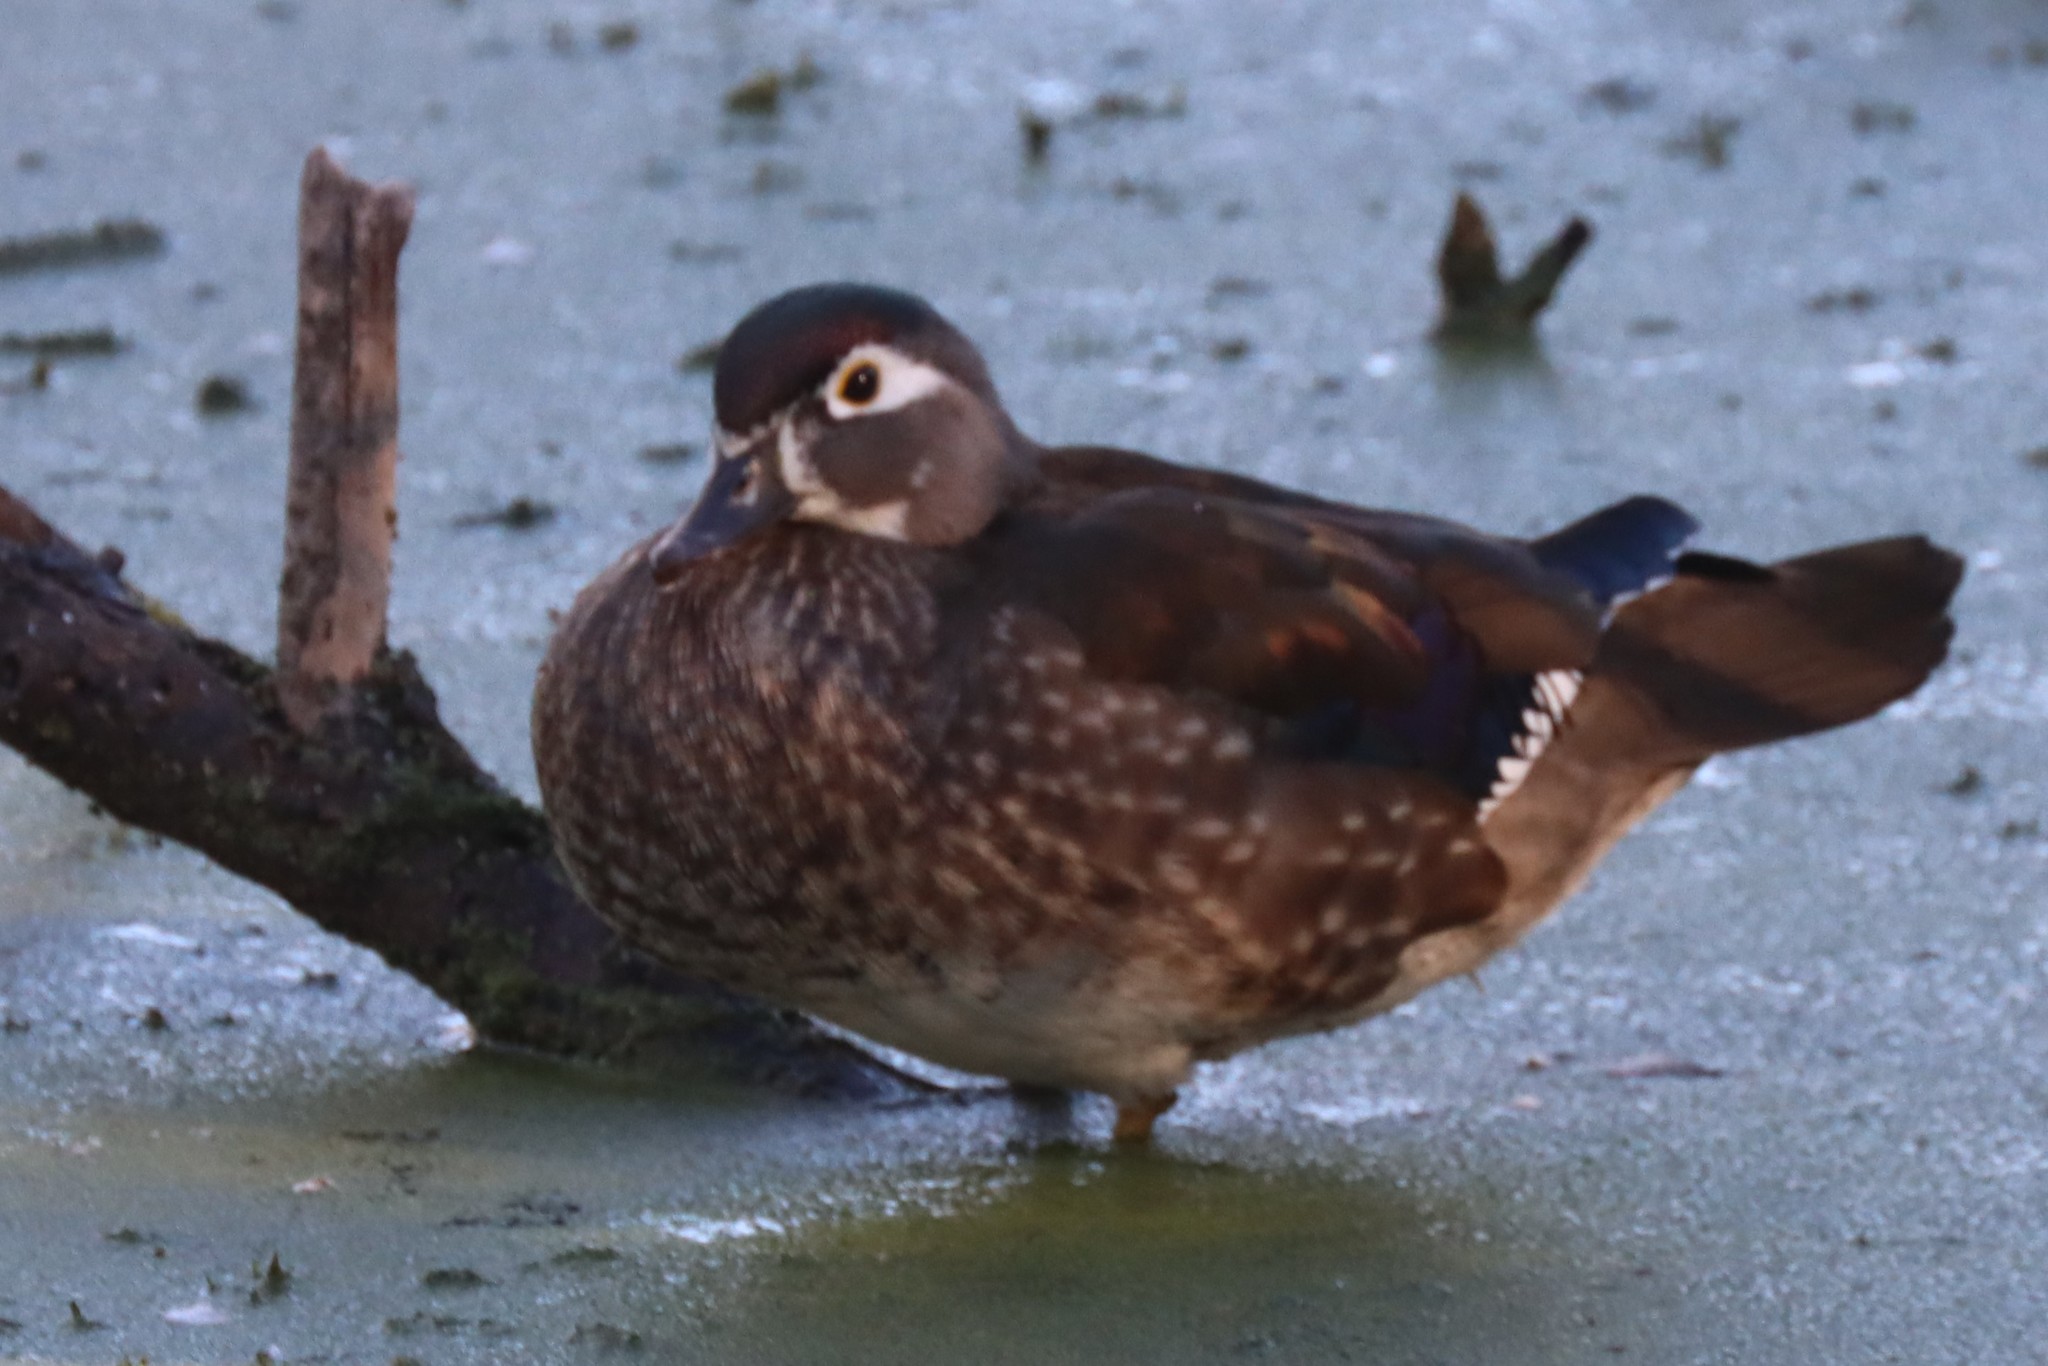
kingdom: Animalia
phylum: Chordata
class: Aves
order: Anseriformes
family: Anatidae
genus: Aix
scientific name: Aix sponsa
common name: Wood duck
